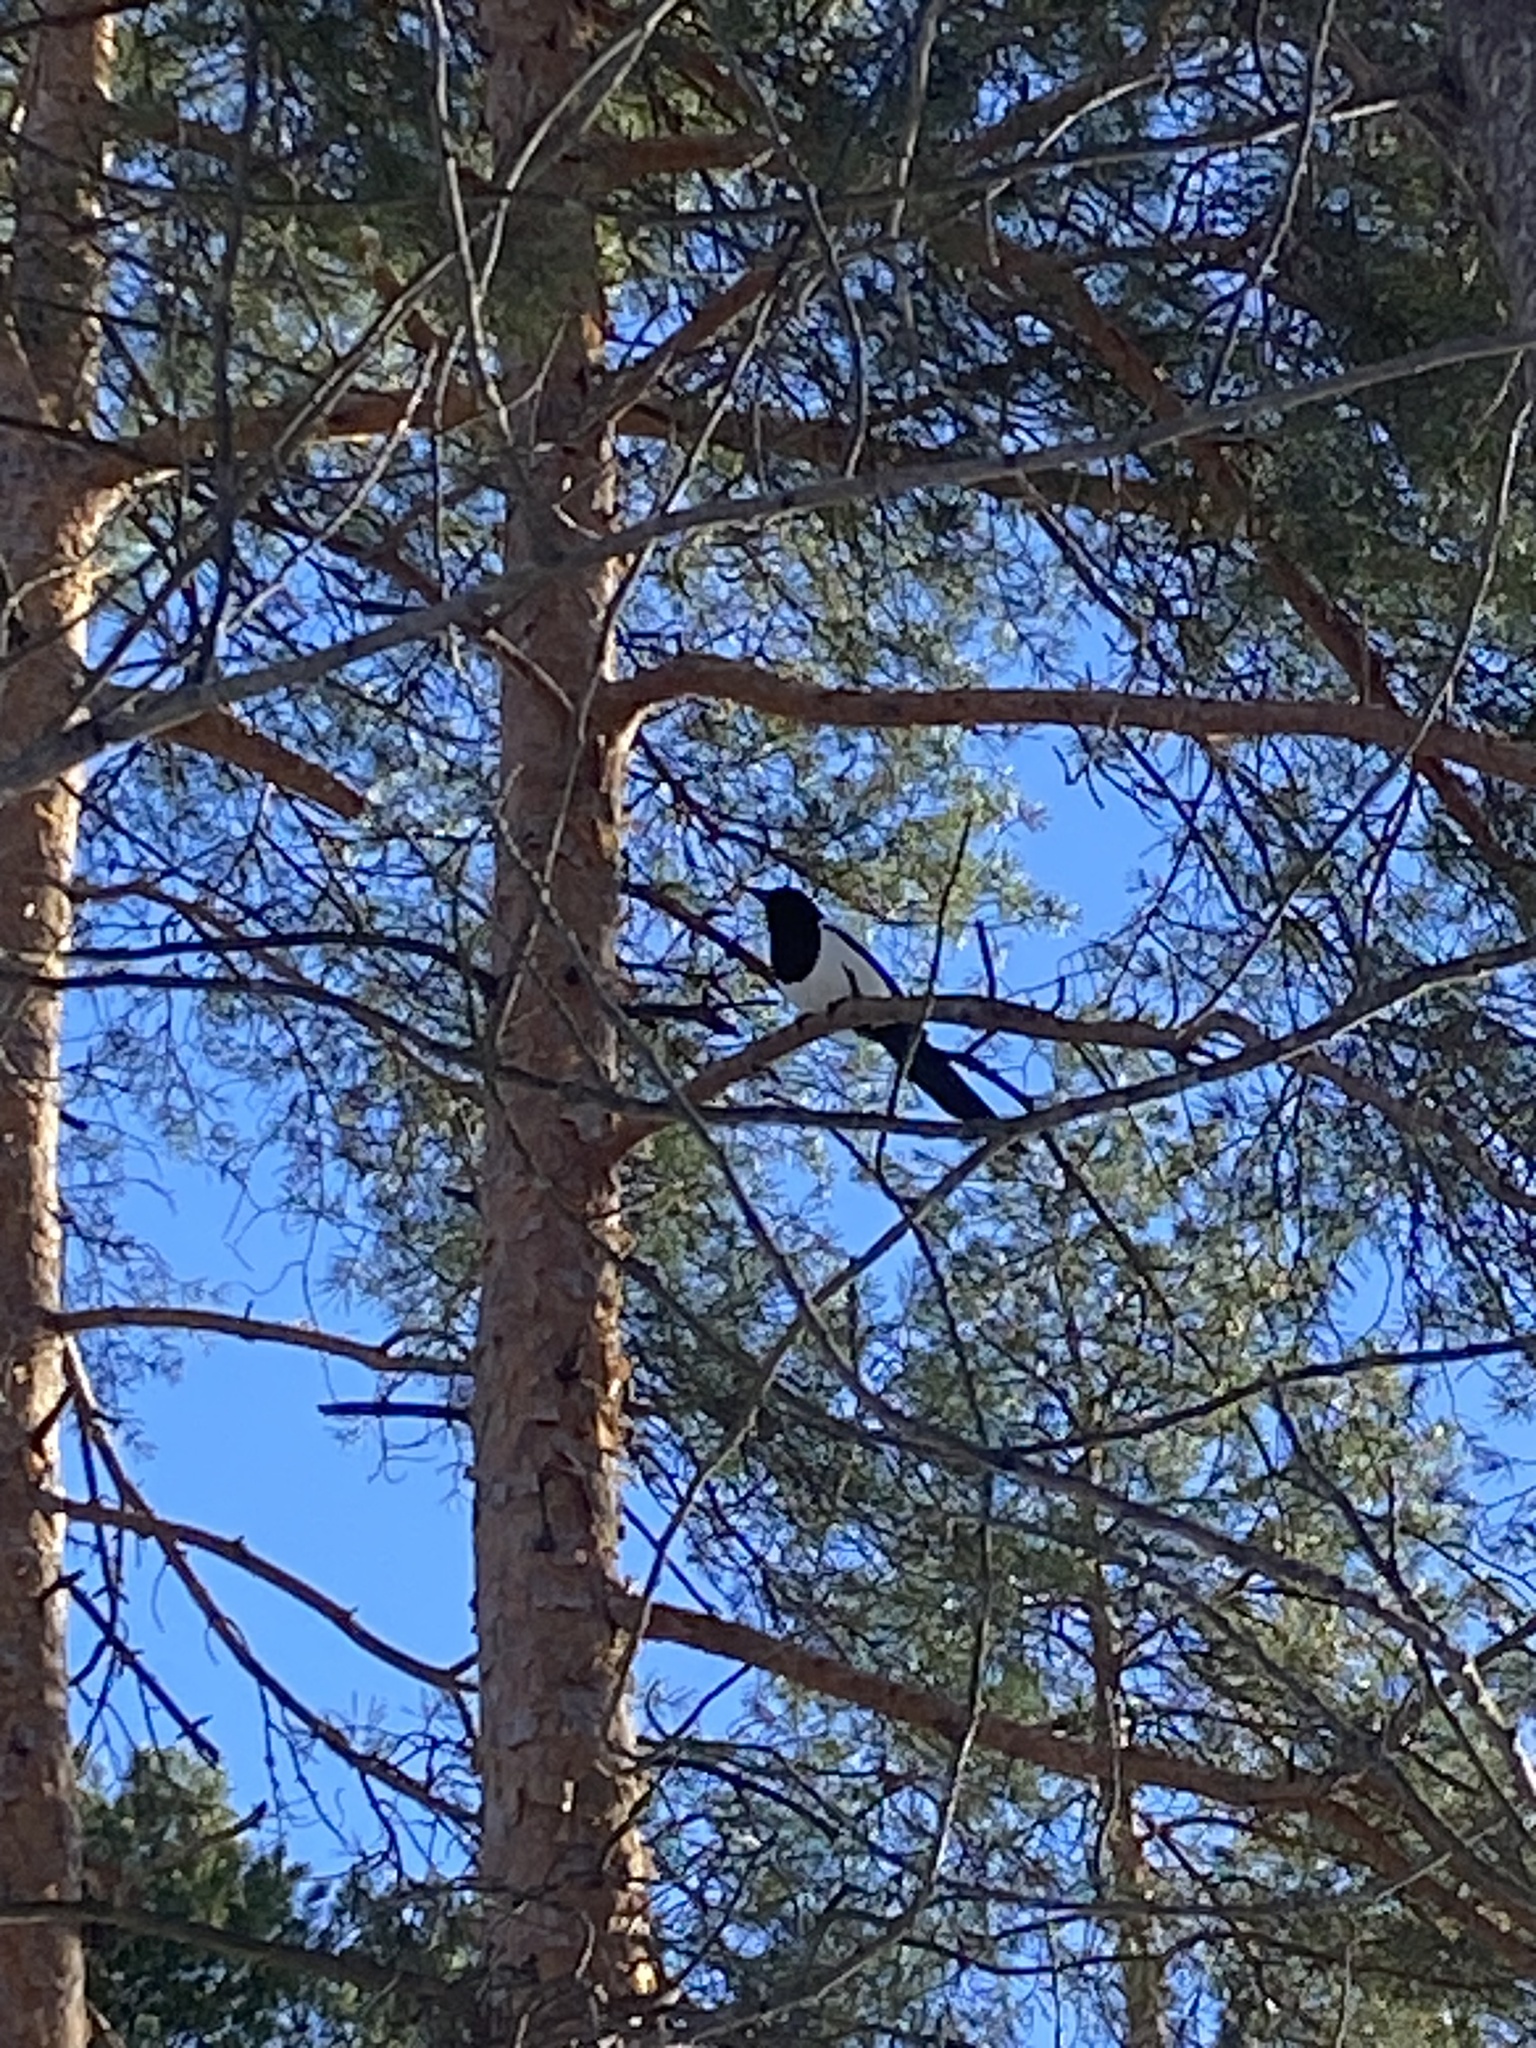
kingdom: Animalia
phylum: Chordata
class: Aves
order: Passeriformes
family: Corvidae
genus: Pica
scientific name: Pica pica
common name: Eurasian magpie
